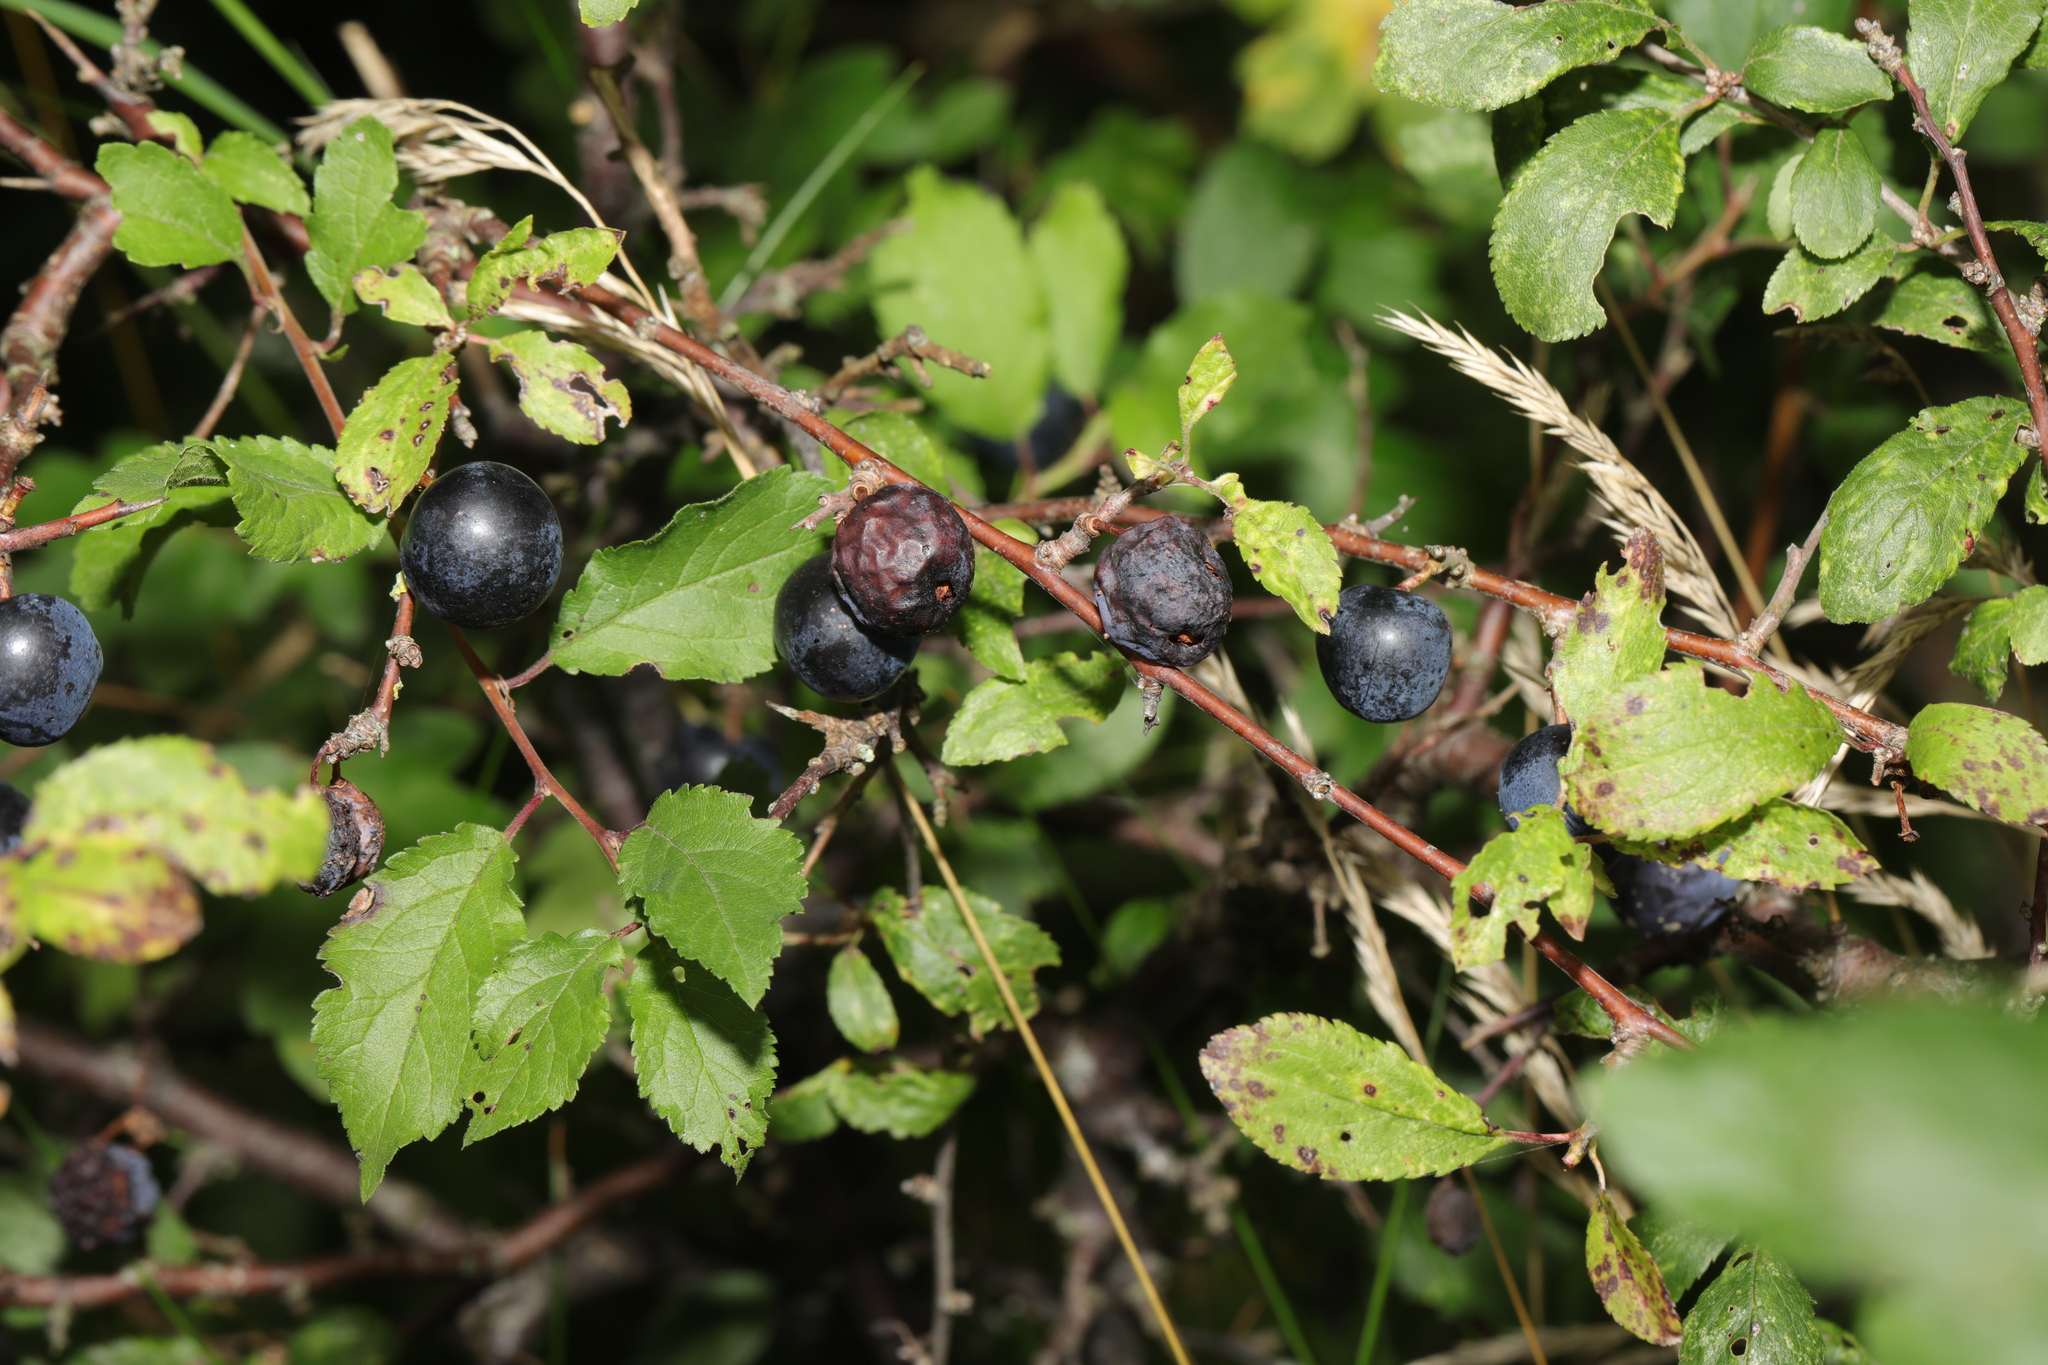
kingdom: Plantae
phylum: Tracheophyta
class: Magnoliopsida
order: Rosales
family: Rosaceae
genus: Prunus
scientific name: Prunus spinosa
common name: Blackthorn
